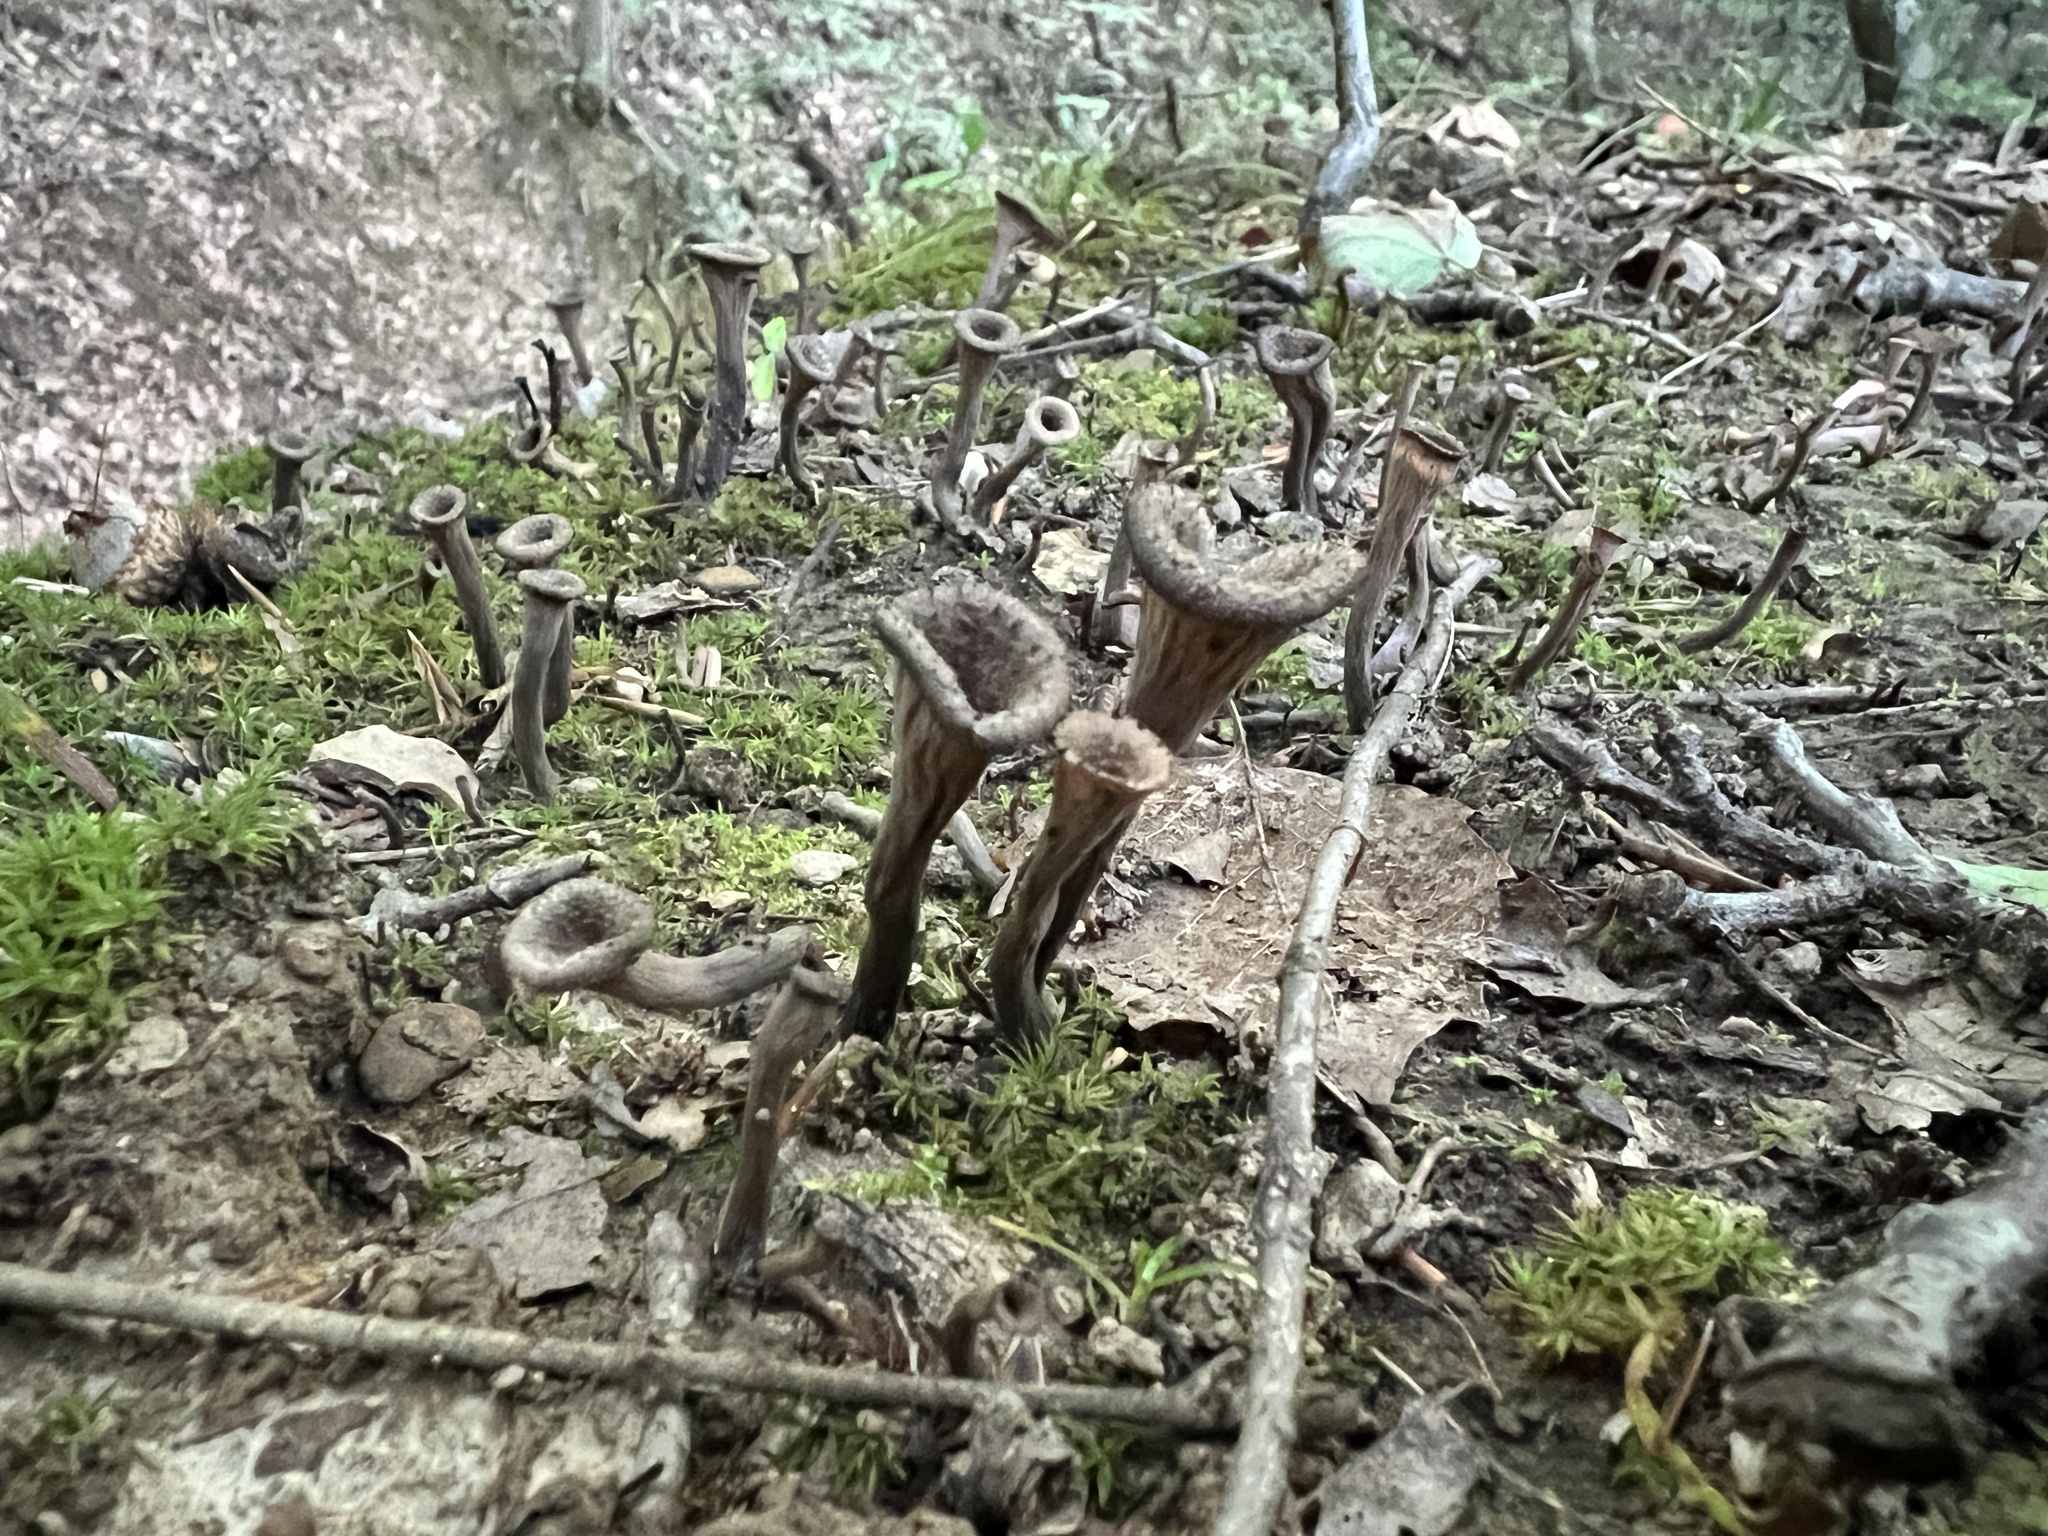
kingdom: Fungi
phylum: Basidiomycota
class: Agaricomycetes
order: Cantharellales
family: Hydnaceae
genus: Craterellus
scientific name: Craterellus cornucopioides
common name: Horn of plenty
